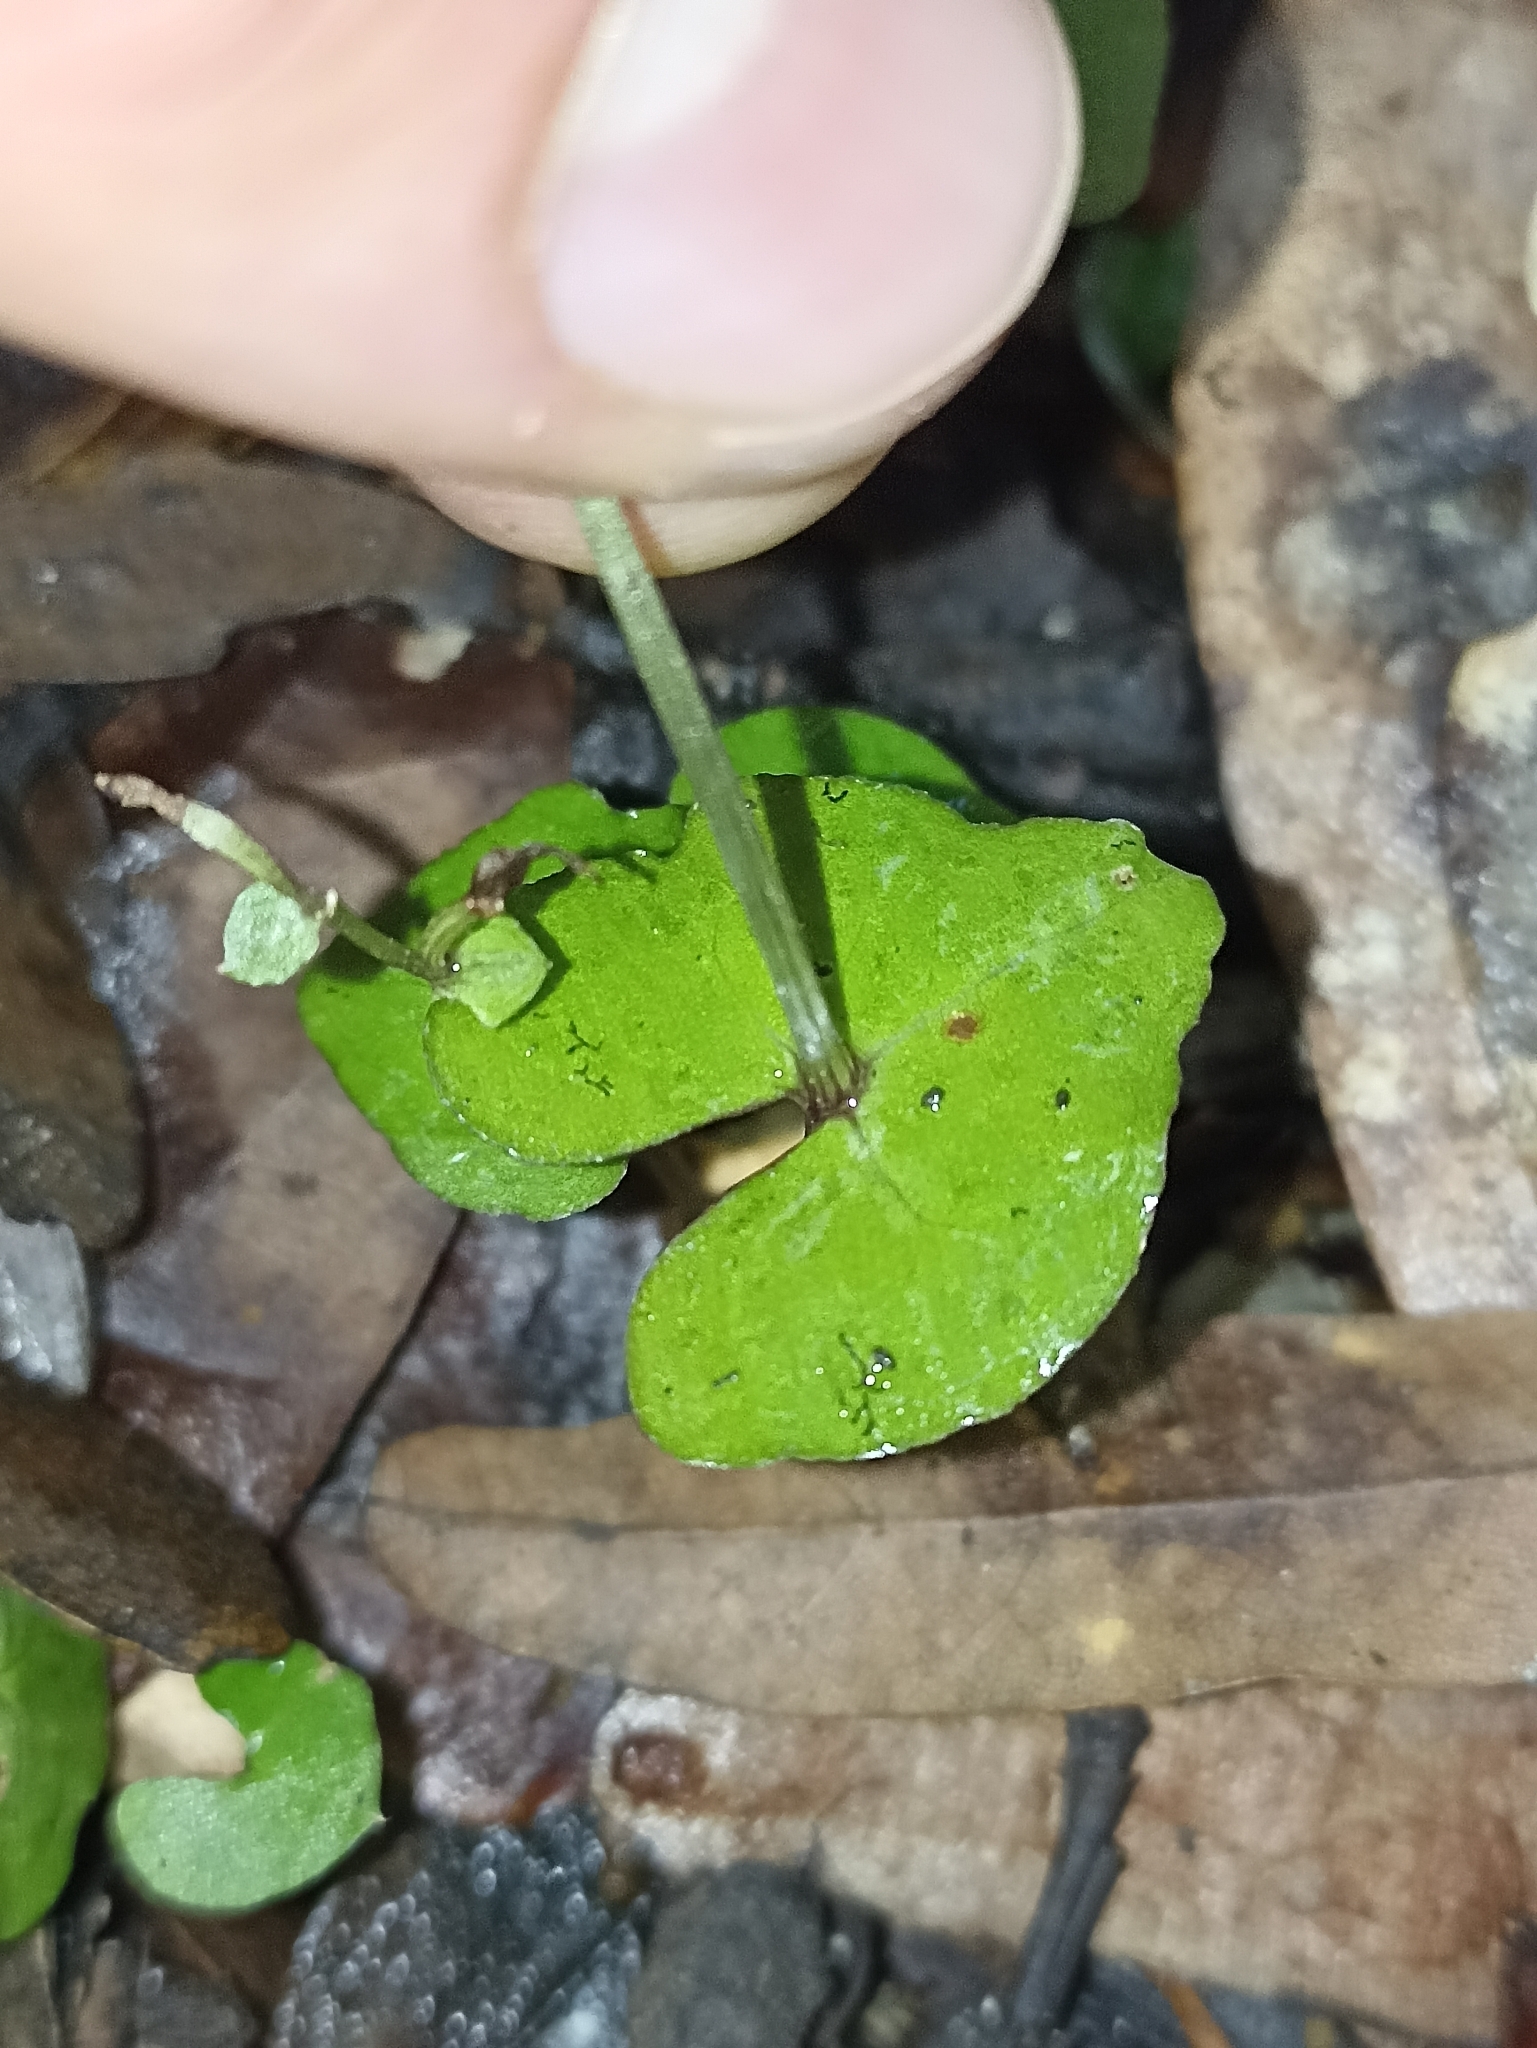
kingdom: Plantae
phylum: Tracheophyta
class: Liliopsida
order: Asparagales
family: Orchidaceae
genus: Acianthus
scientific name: Acianthus sinclairii
